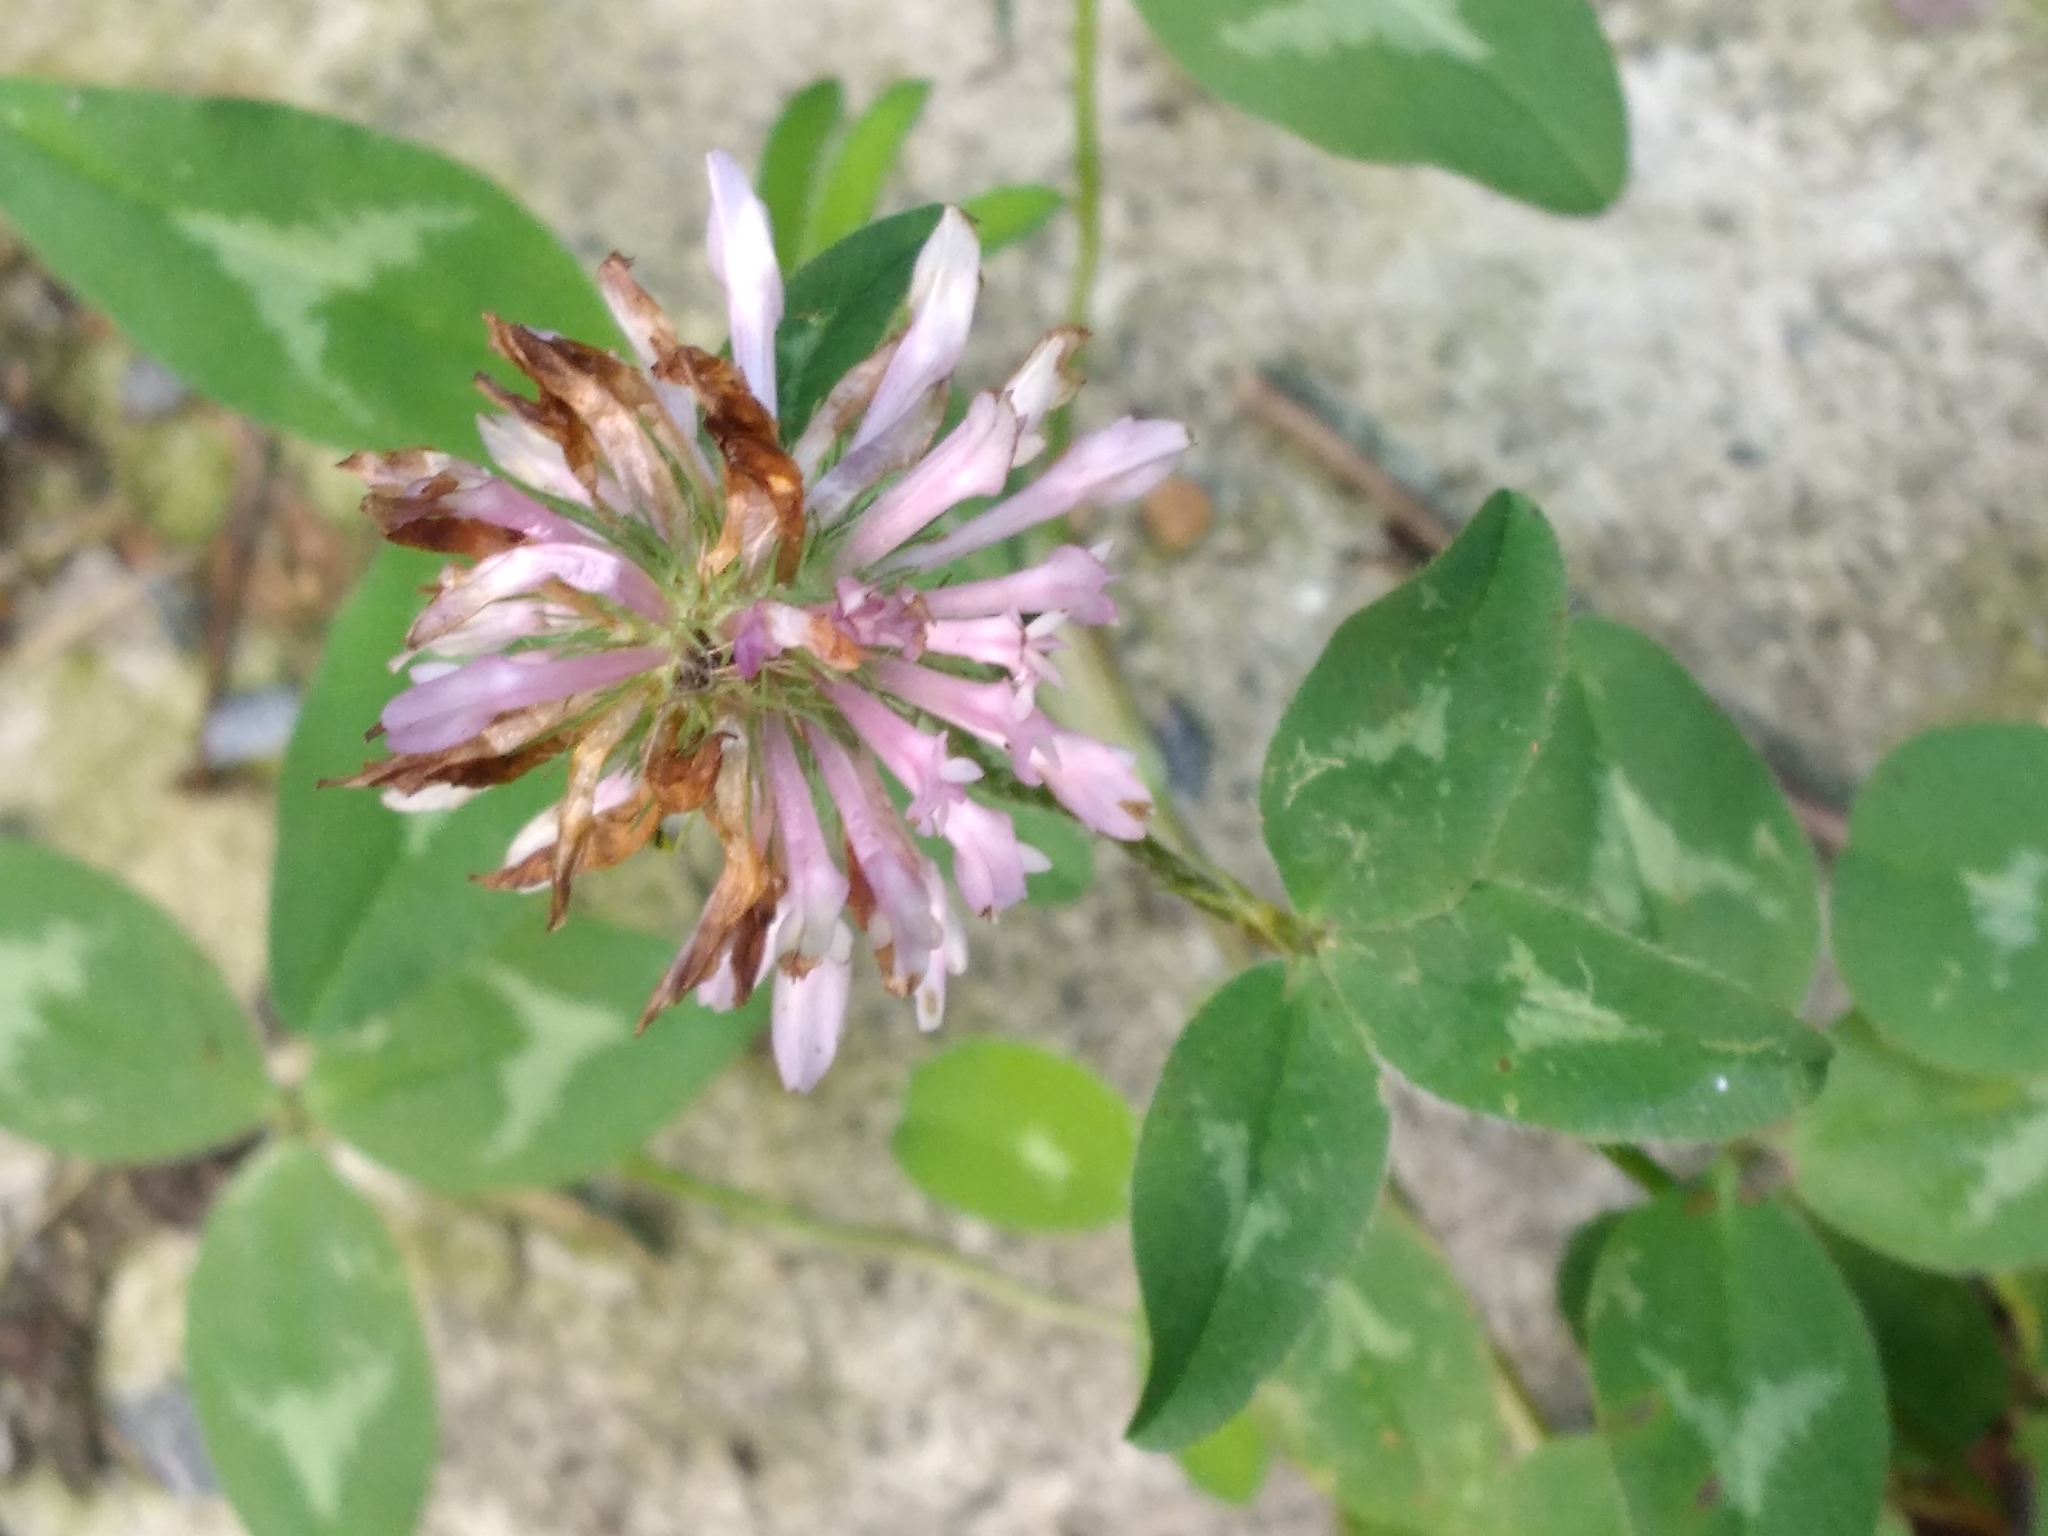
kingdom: Plantae
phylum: Tracheophyta
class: Magnoliopsida
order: Fabales
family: Fabaceae
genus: Trifolium
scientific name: Trifolium pratense
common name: Red clover
